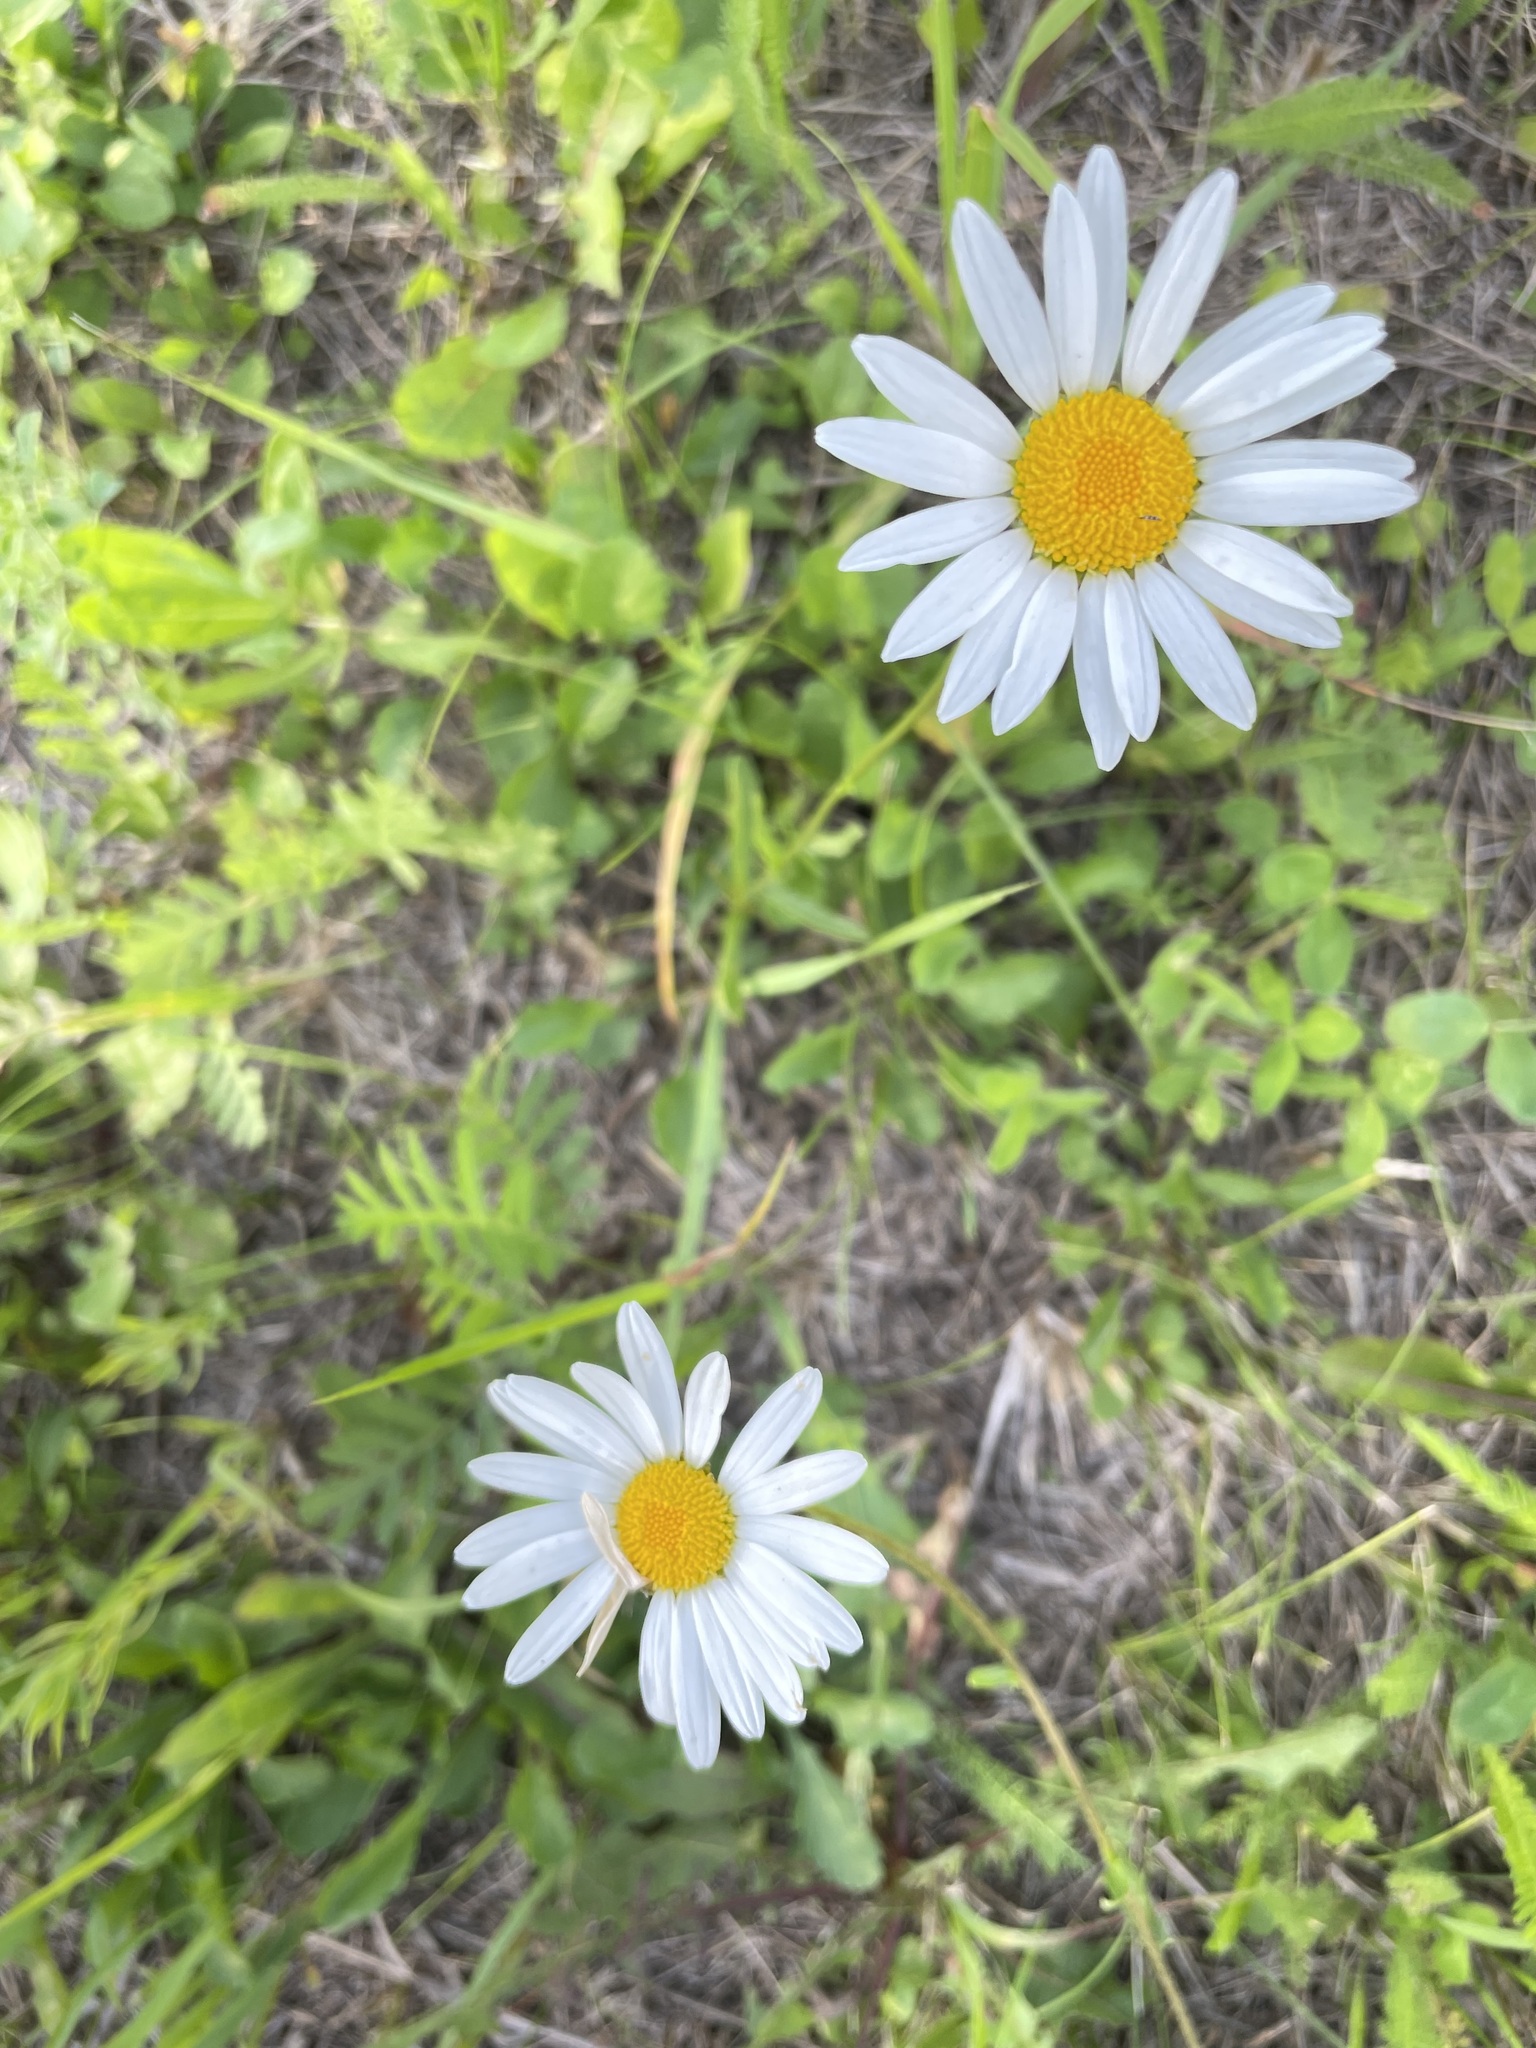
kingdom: Plantae
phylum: Tracheophyta
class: Magnoliopsida
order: Asterales
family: Asteraceae
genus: Leucanthemum
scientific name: Leucanthemum vulgare
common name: Oxeye daisy
